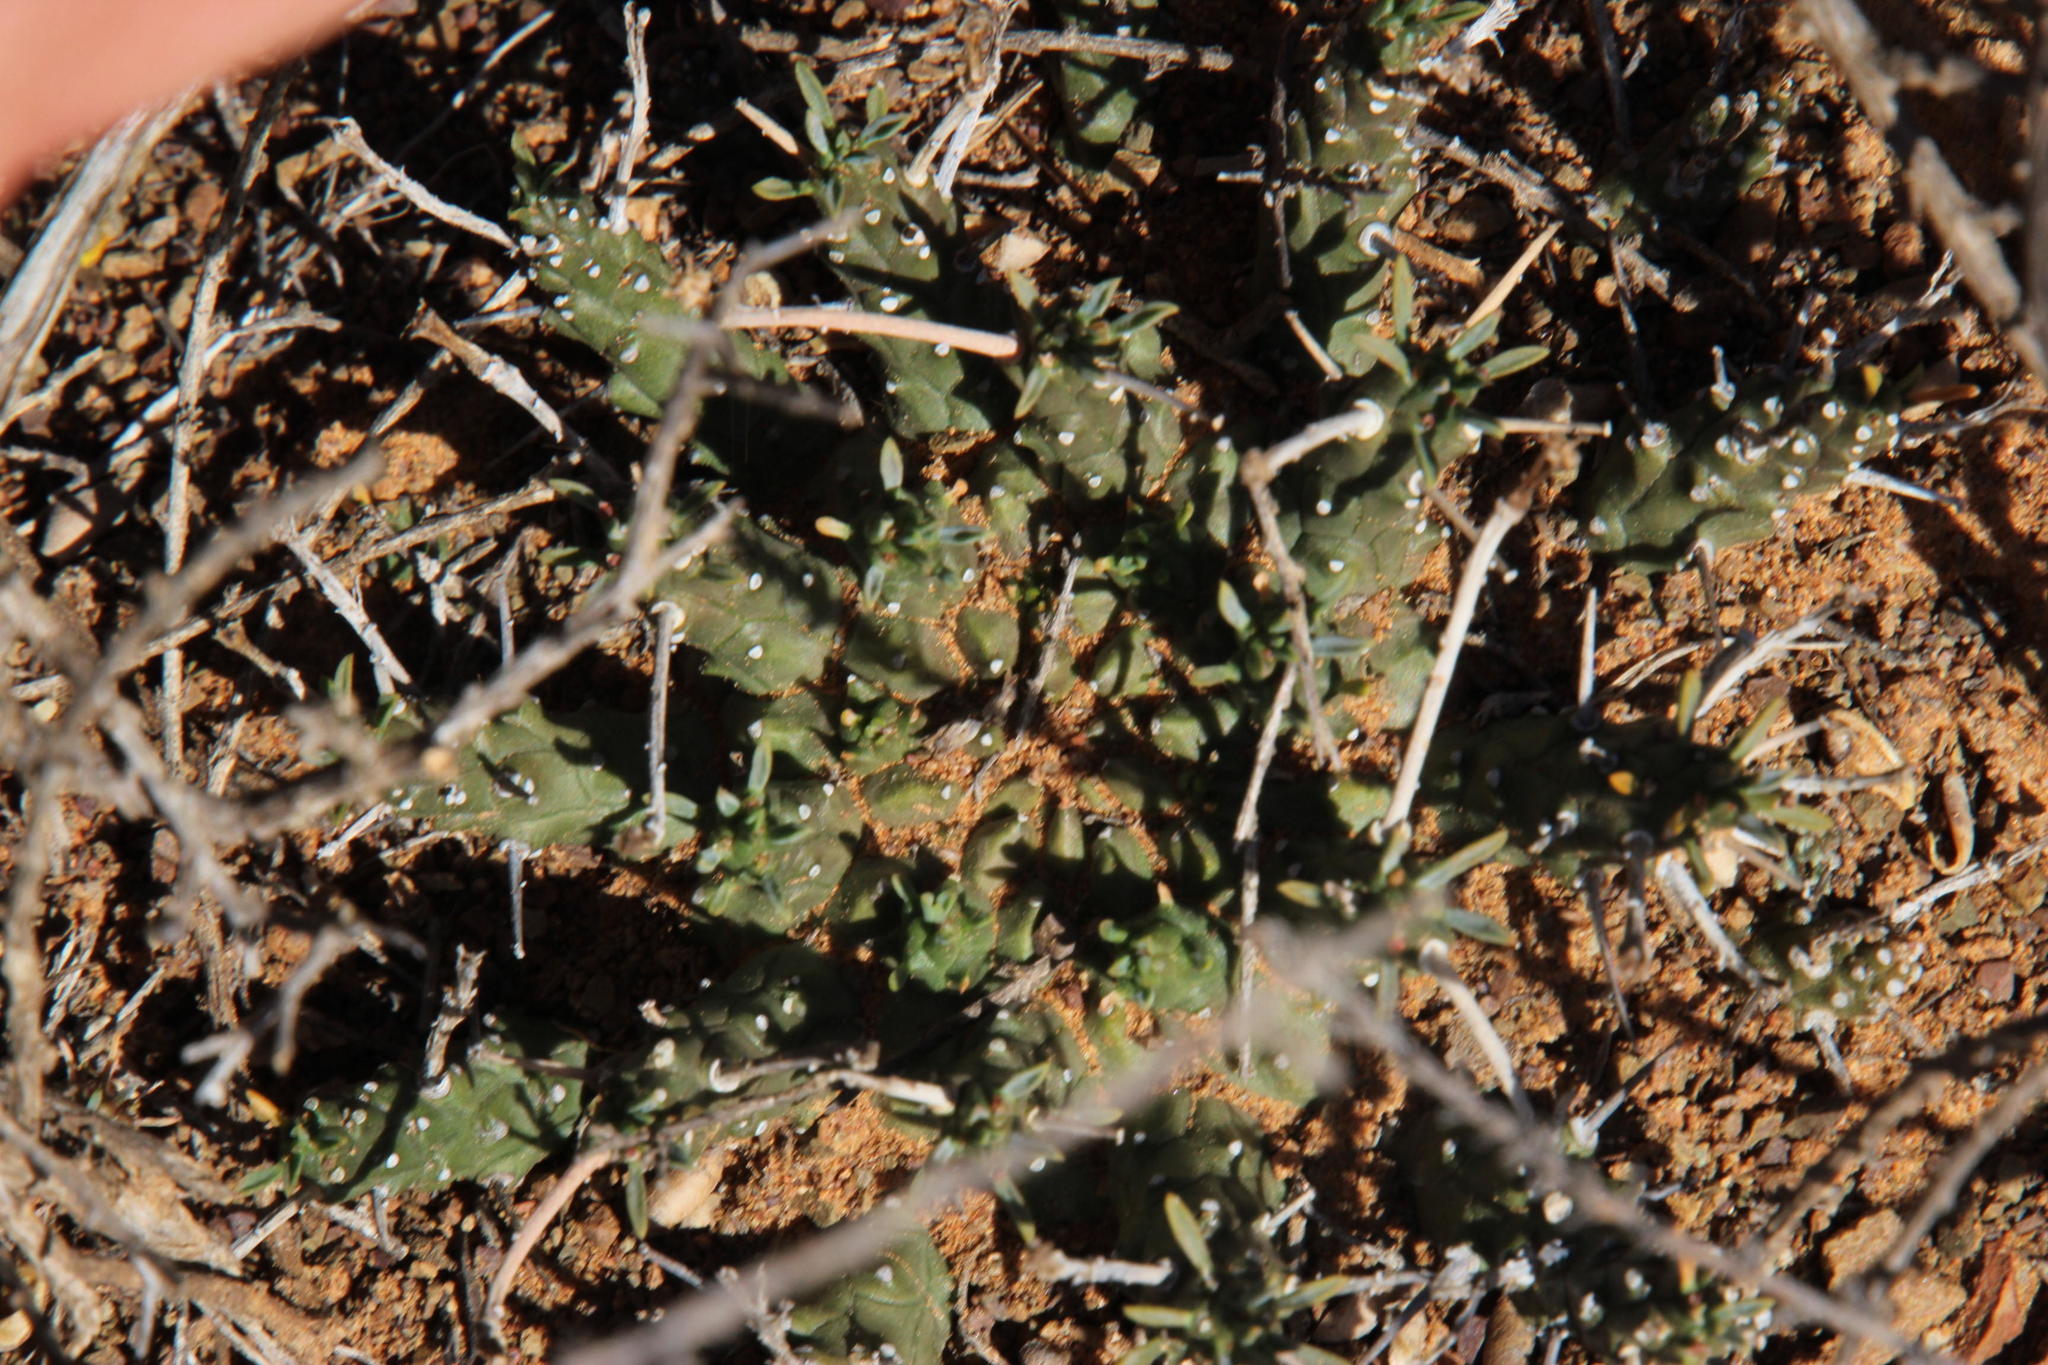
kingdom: Plantae
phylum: Tracheophyta
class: Magnoliopsida
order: Malpighiales
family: Euphorbiaceae
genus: Euphorbia
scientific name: Euphorbia decepta
